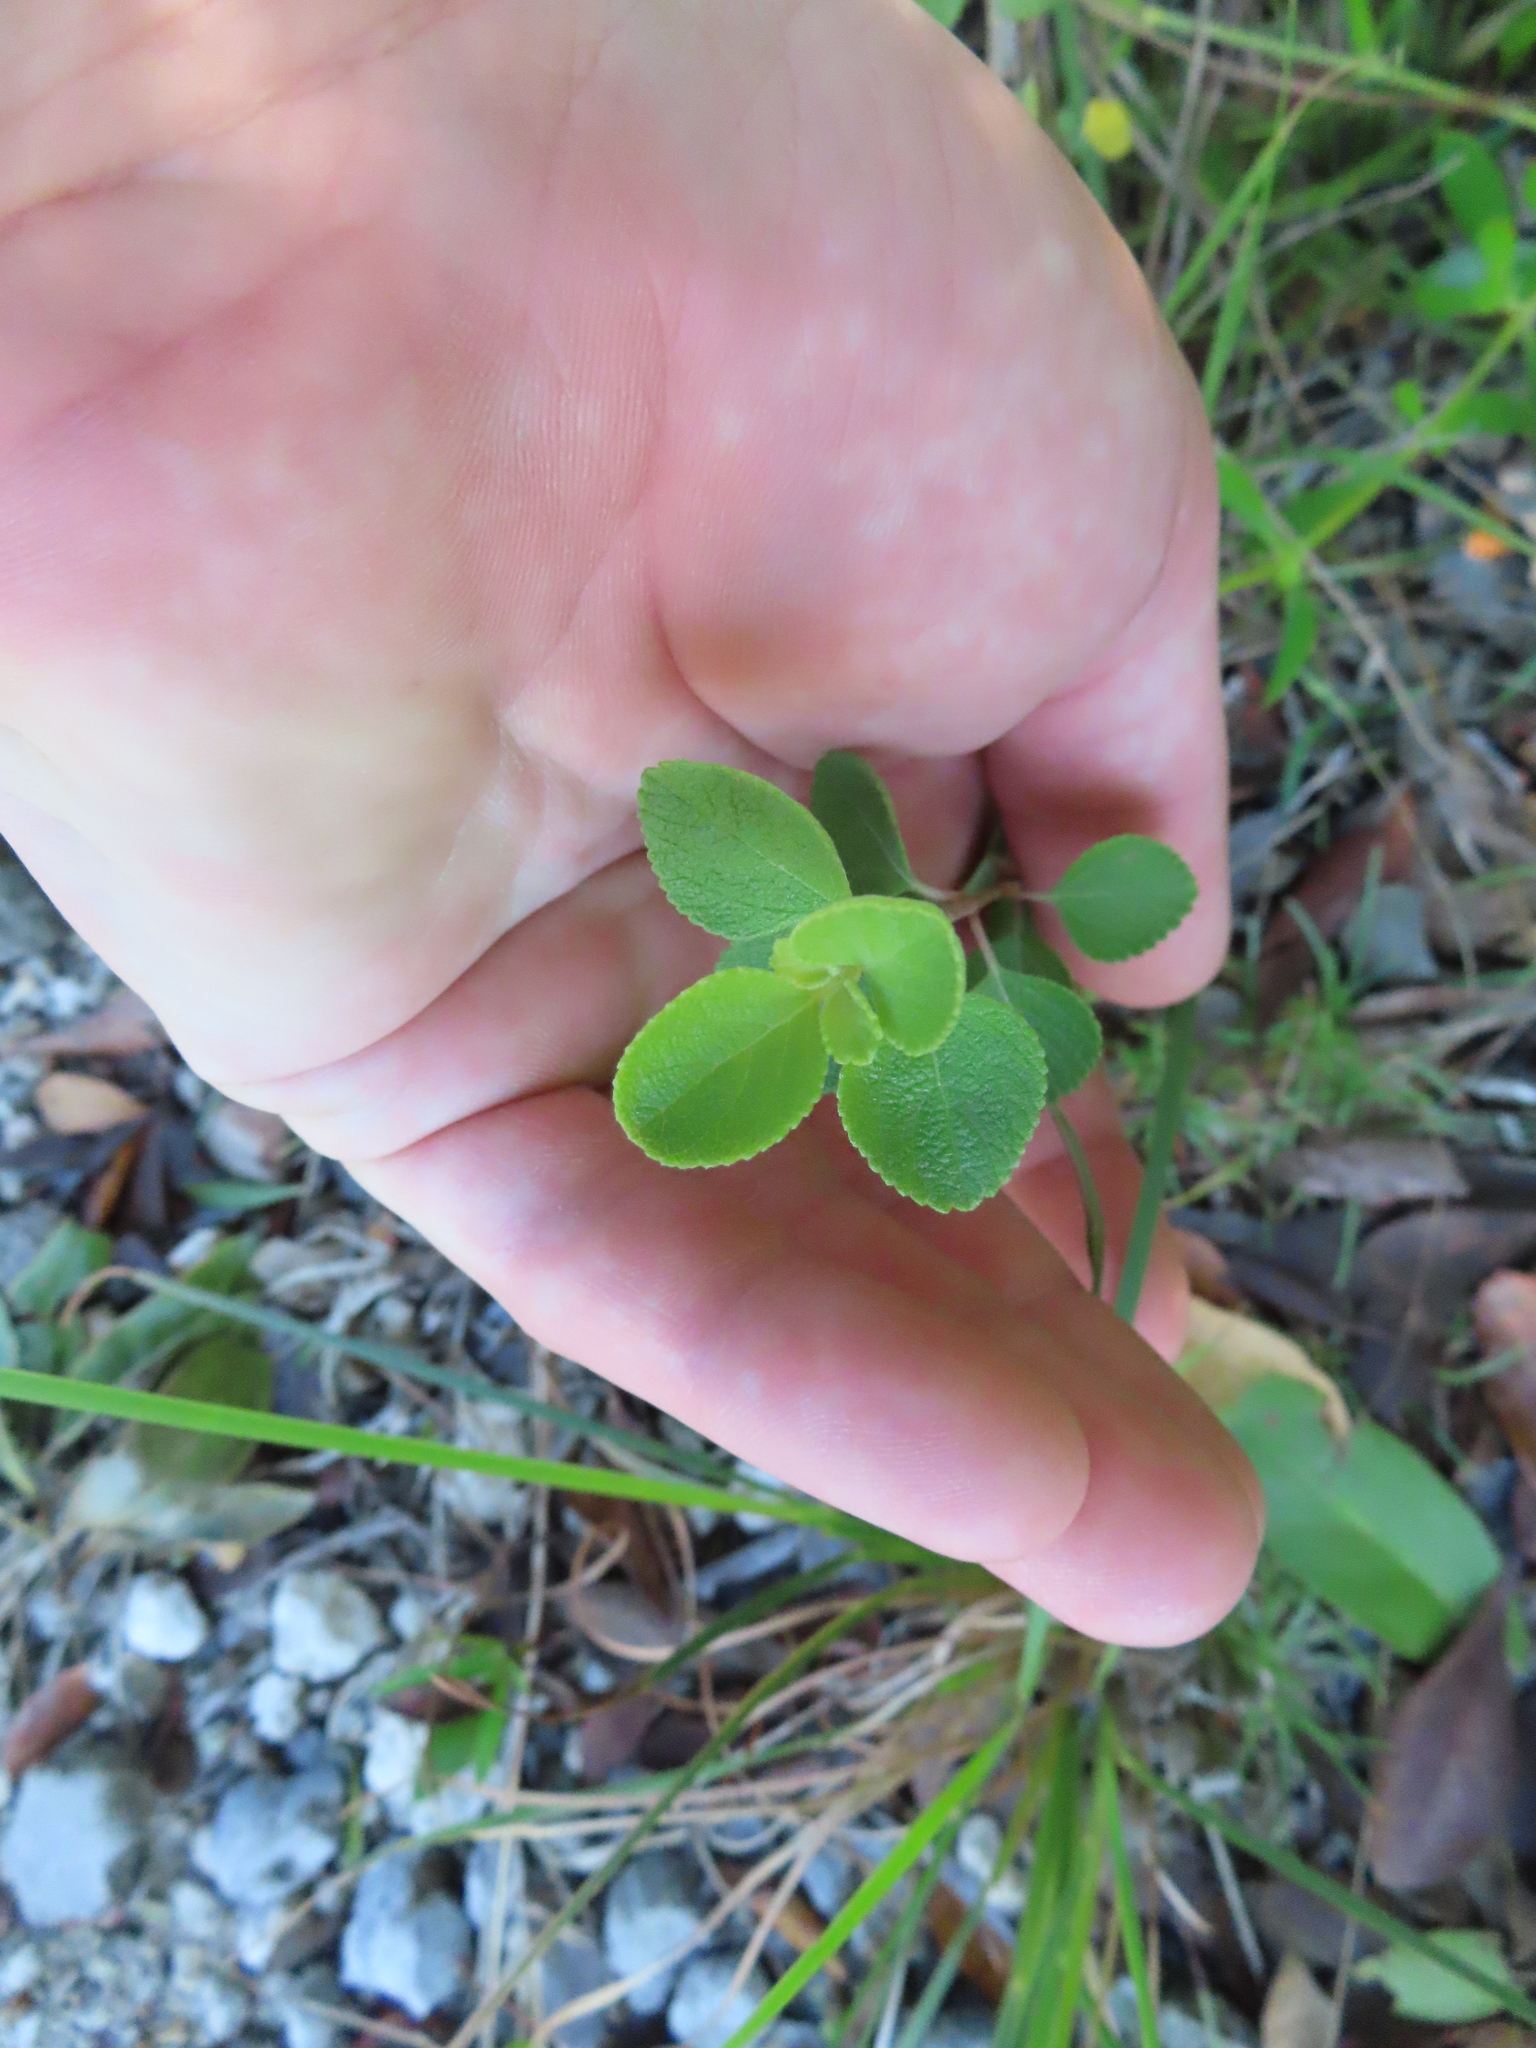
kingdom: Plantae
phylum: Tracheophyta
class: Magnoliopsida
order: Lamiales
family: Verbenaceae
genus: Lantana
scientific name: Lantana involucrata
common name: Black sage
